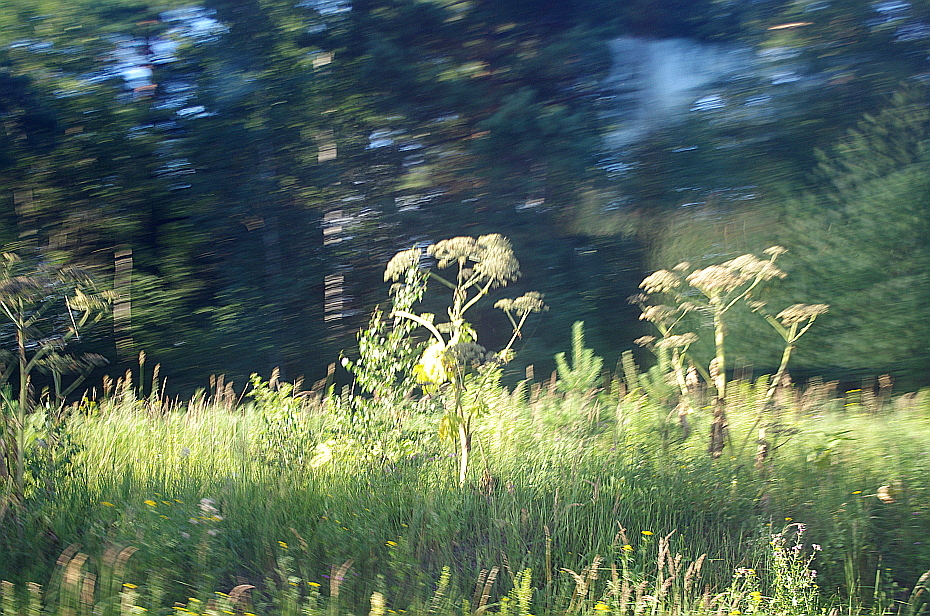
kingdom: Plantae
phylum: Tracheophyta
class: Magnoliopsida
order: Apiales
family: Apiaceae
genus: Heracleum
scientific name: Heracleum sosnowskyi
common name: Sosnowsky's hogweed
